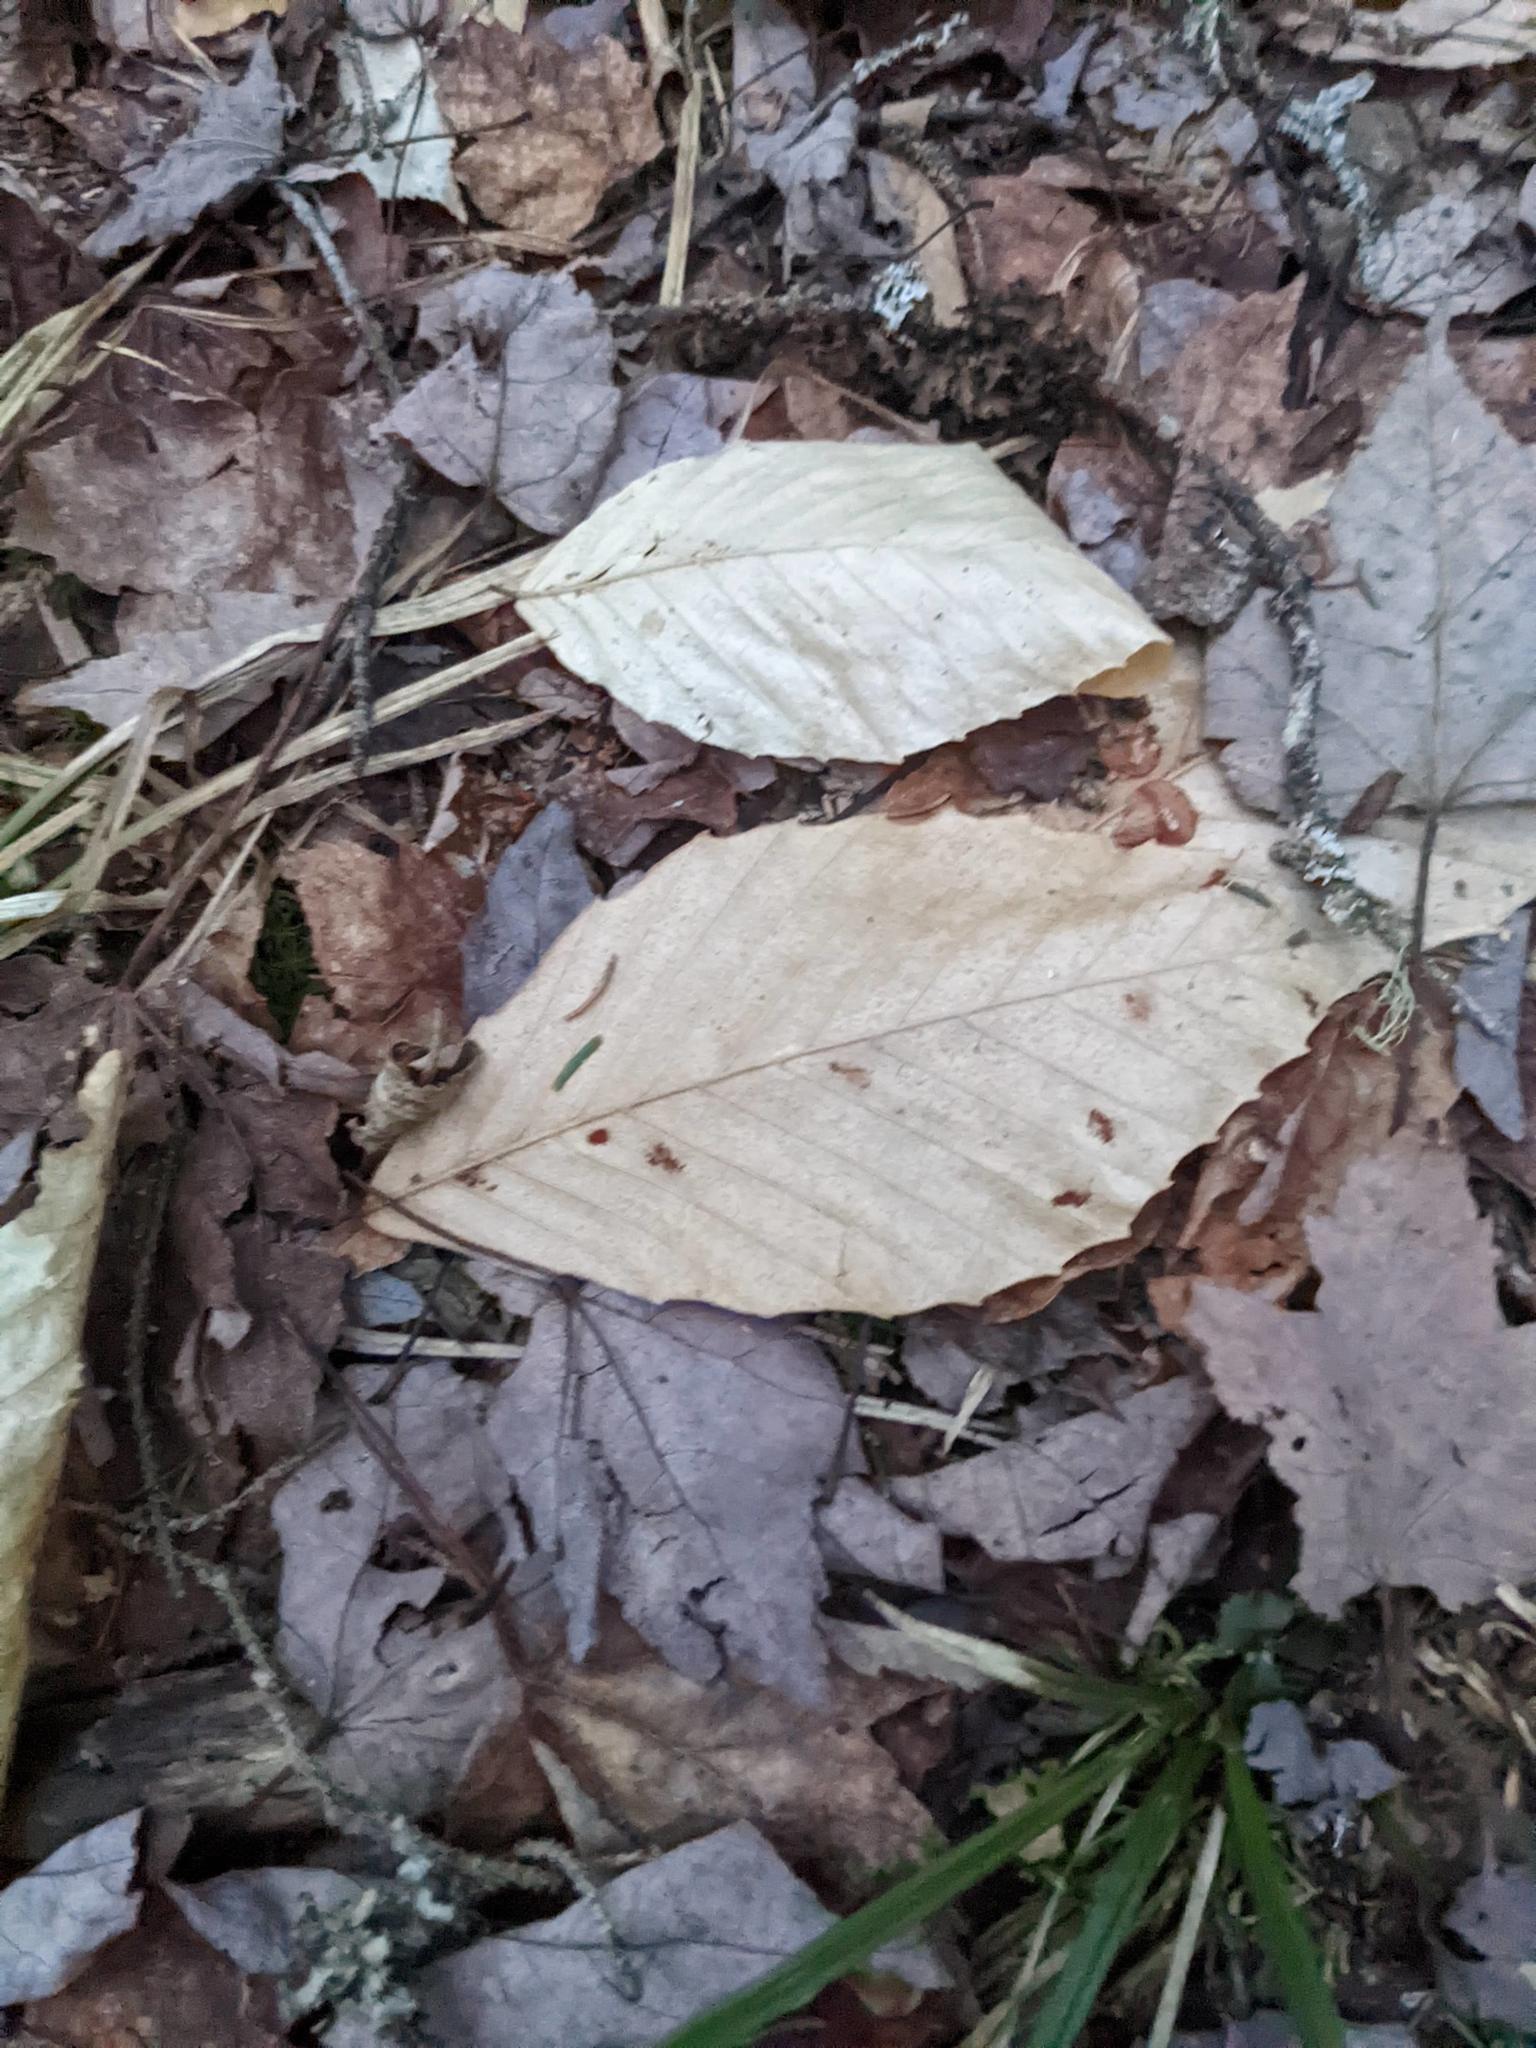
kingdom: Plantae
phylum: Tracheophyta
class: Magnoliopsida
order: Fagales
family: Fagaceae
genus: Fagus
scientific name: Fagus grandifolia
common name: American beech
